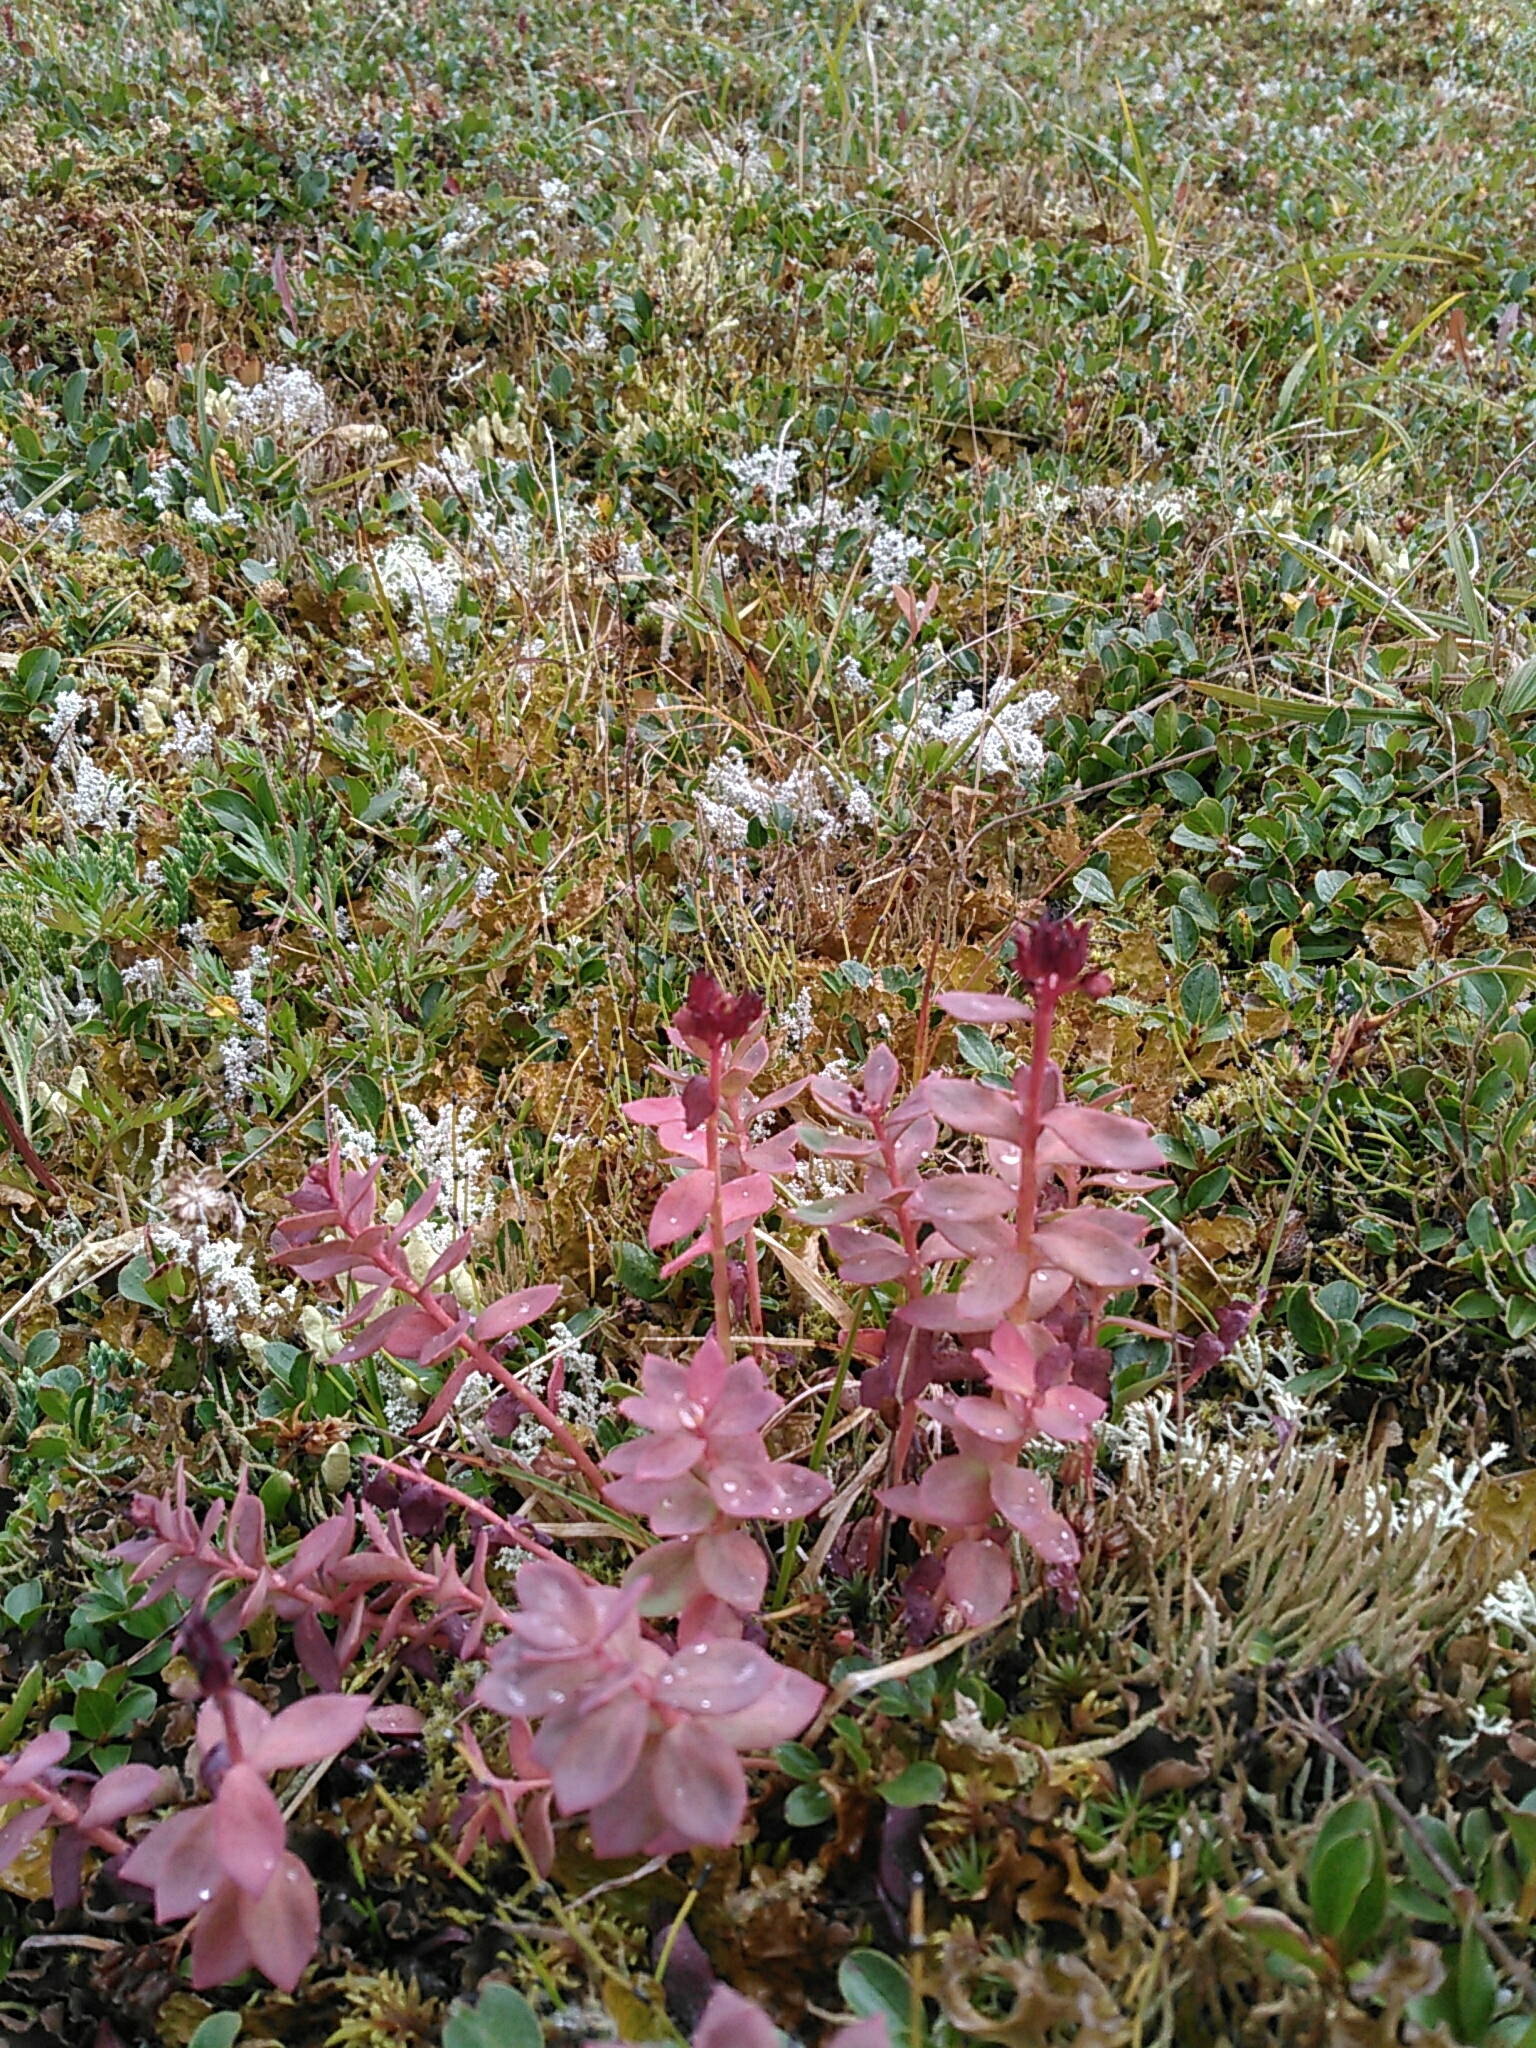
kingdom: Plantae
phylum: Tracheophyta
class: Magnoliopsida
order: Saxifragales
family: Crassulaceae
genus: Rhodiola
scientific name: Rhodiola integrifolia
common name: Western roseroot
